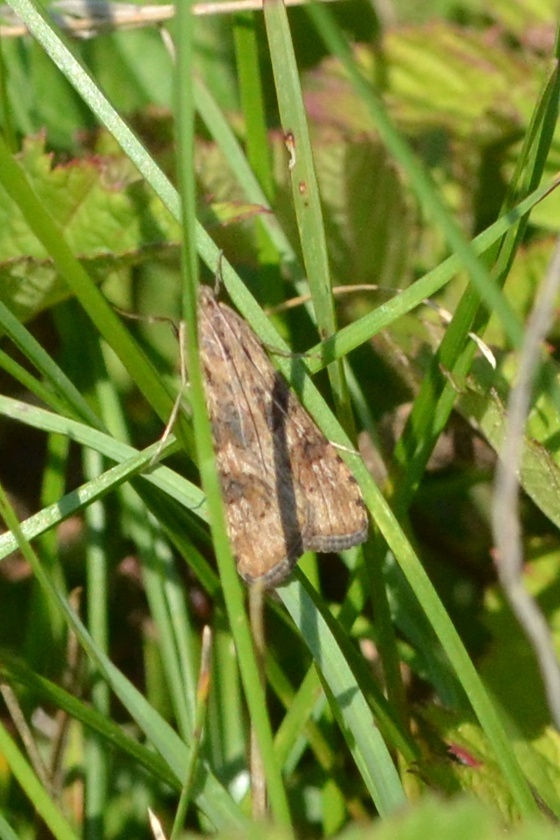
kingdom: Animalia
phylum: Arthropoda
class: Insecta
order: Lepidoptera
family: Crambidae
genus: Nomophila
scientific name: Nomophila noctuella
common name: Rush veneer
